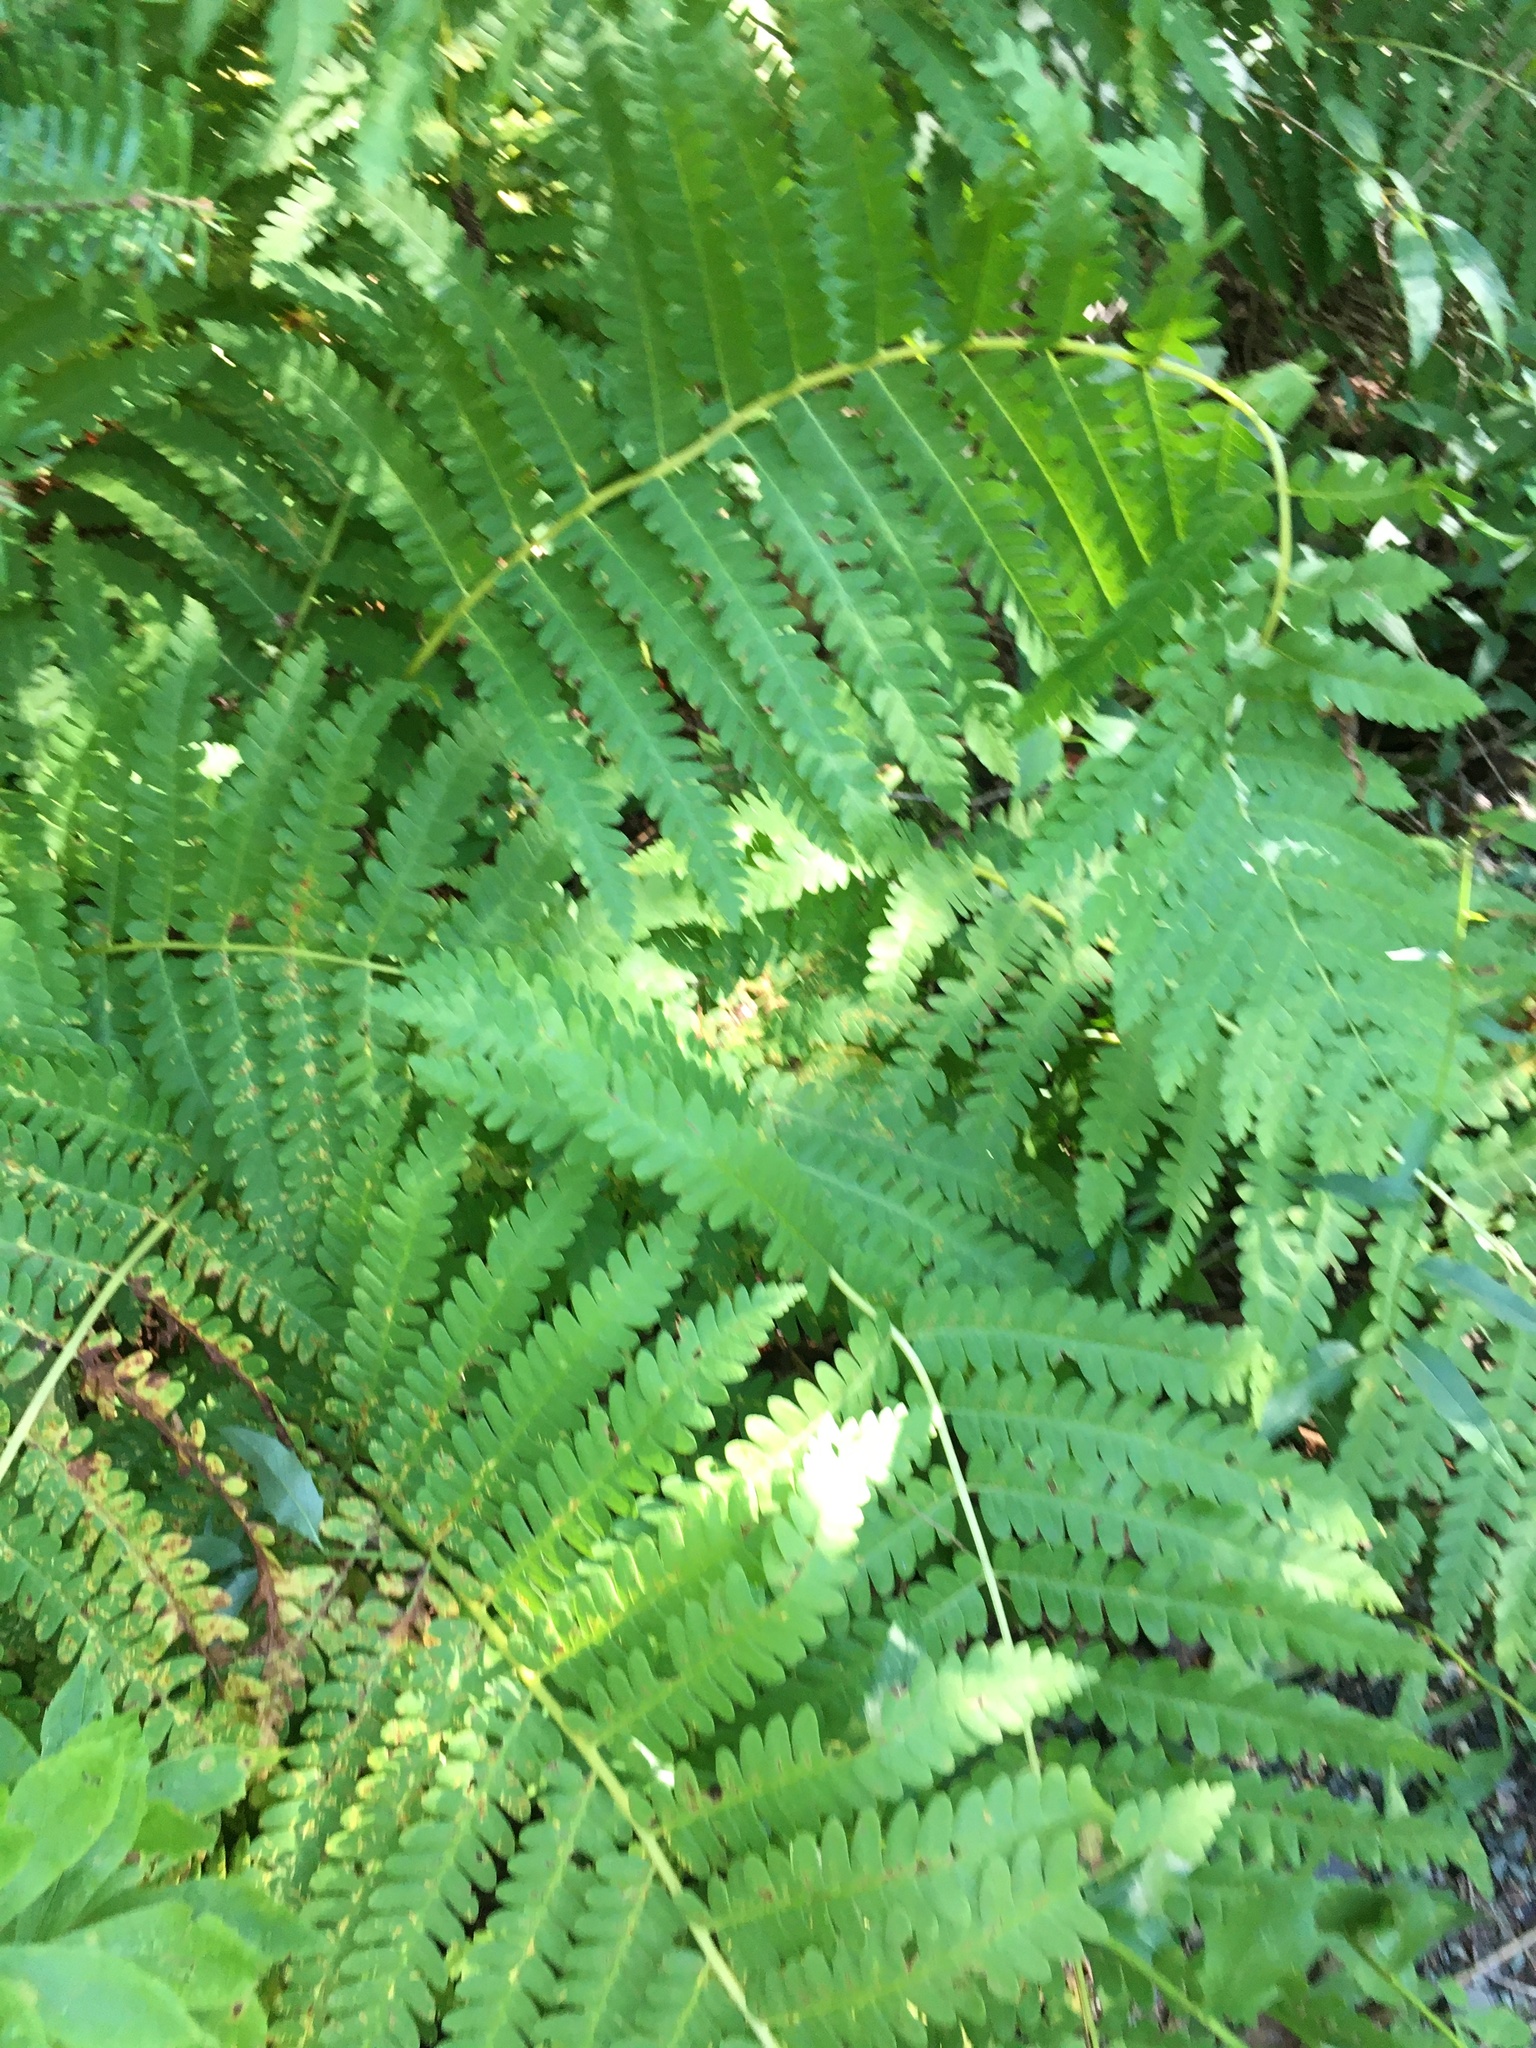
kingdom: Plantae
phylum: Tracheophyta
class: Polypodiopsida
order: Osmundales
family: Osmundaceae
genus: Claytosmunda
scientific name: Claytosmunda claytoniana
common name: Clayton's fern
